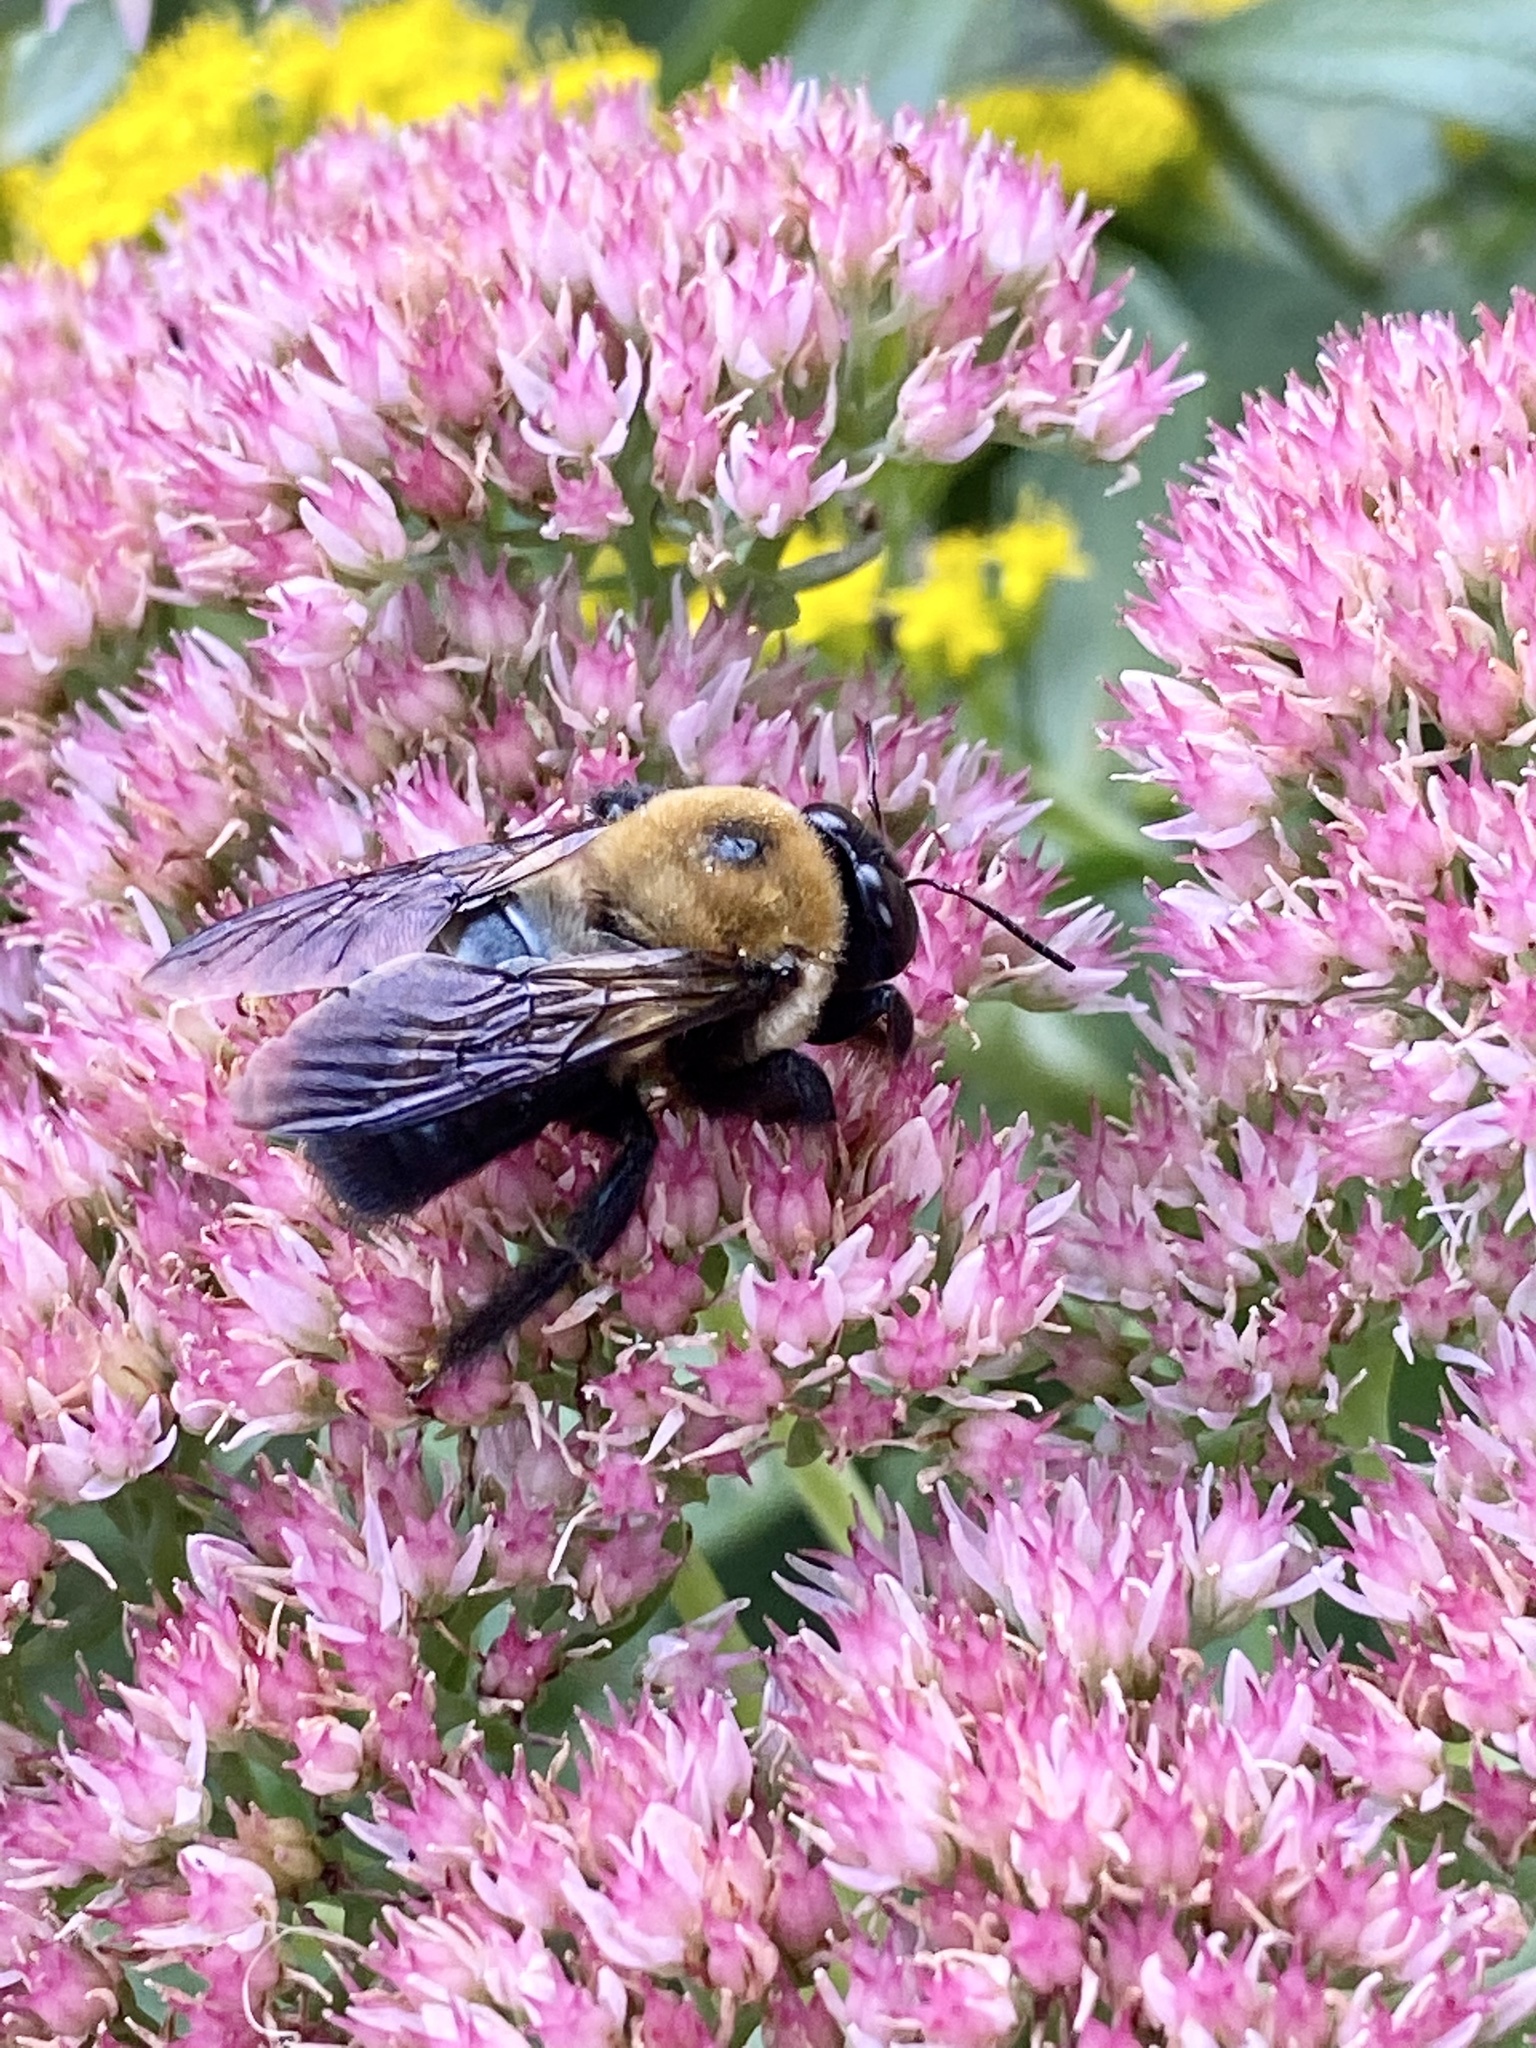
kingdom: Animalia
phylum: Arthropoda
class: Insecta
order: Hymenoptera
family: Apidae
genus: Xylocopa
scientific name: Xylocopa virginica
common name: Carpenter bee
